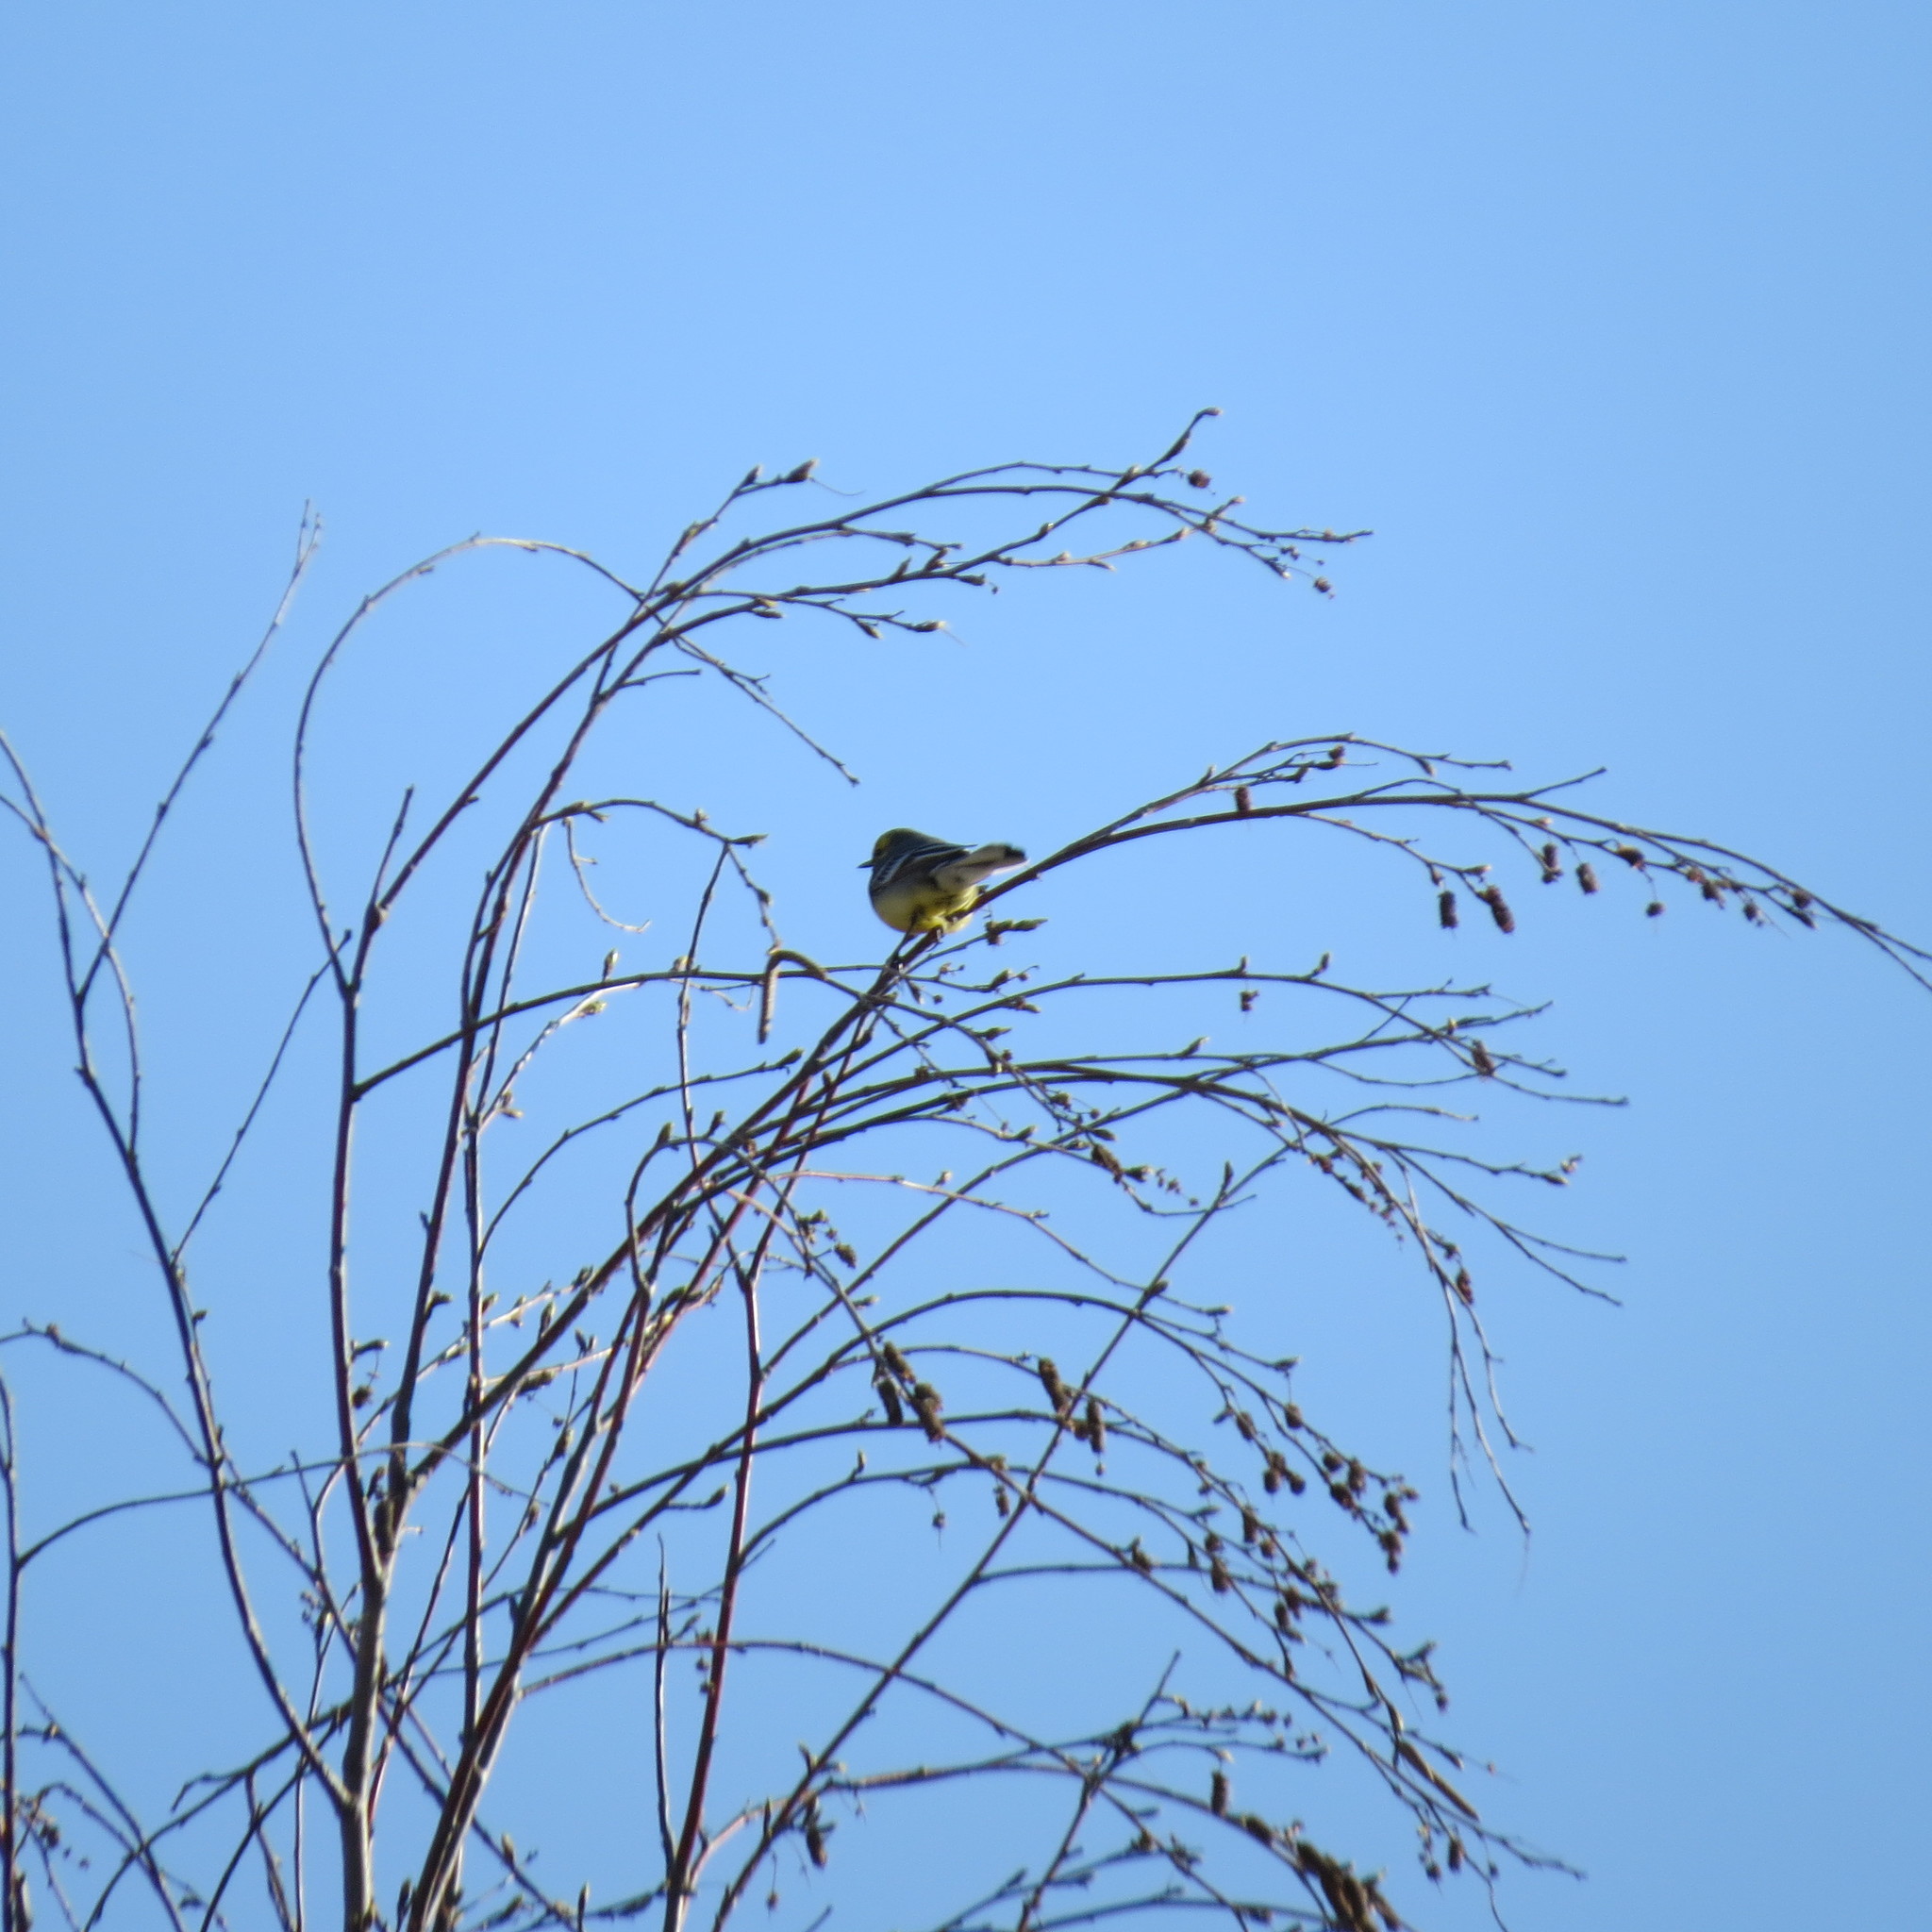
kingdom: Animalia
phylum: Chordata
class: Aves
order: Passeriformes
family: Motacillidae
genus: Motacilla
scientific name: Motacilla citreola
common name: Citrine wagtail
